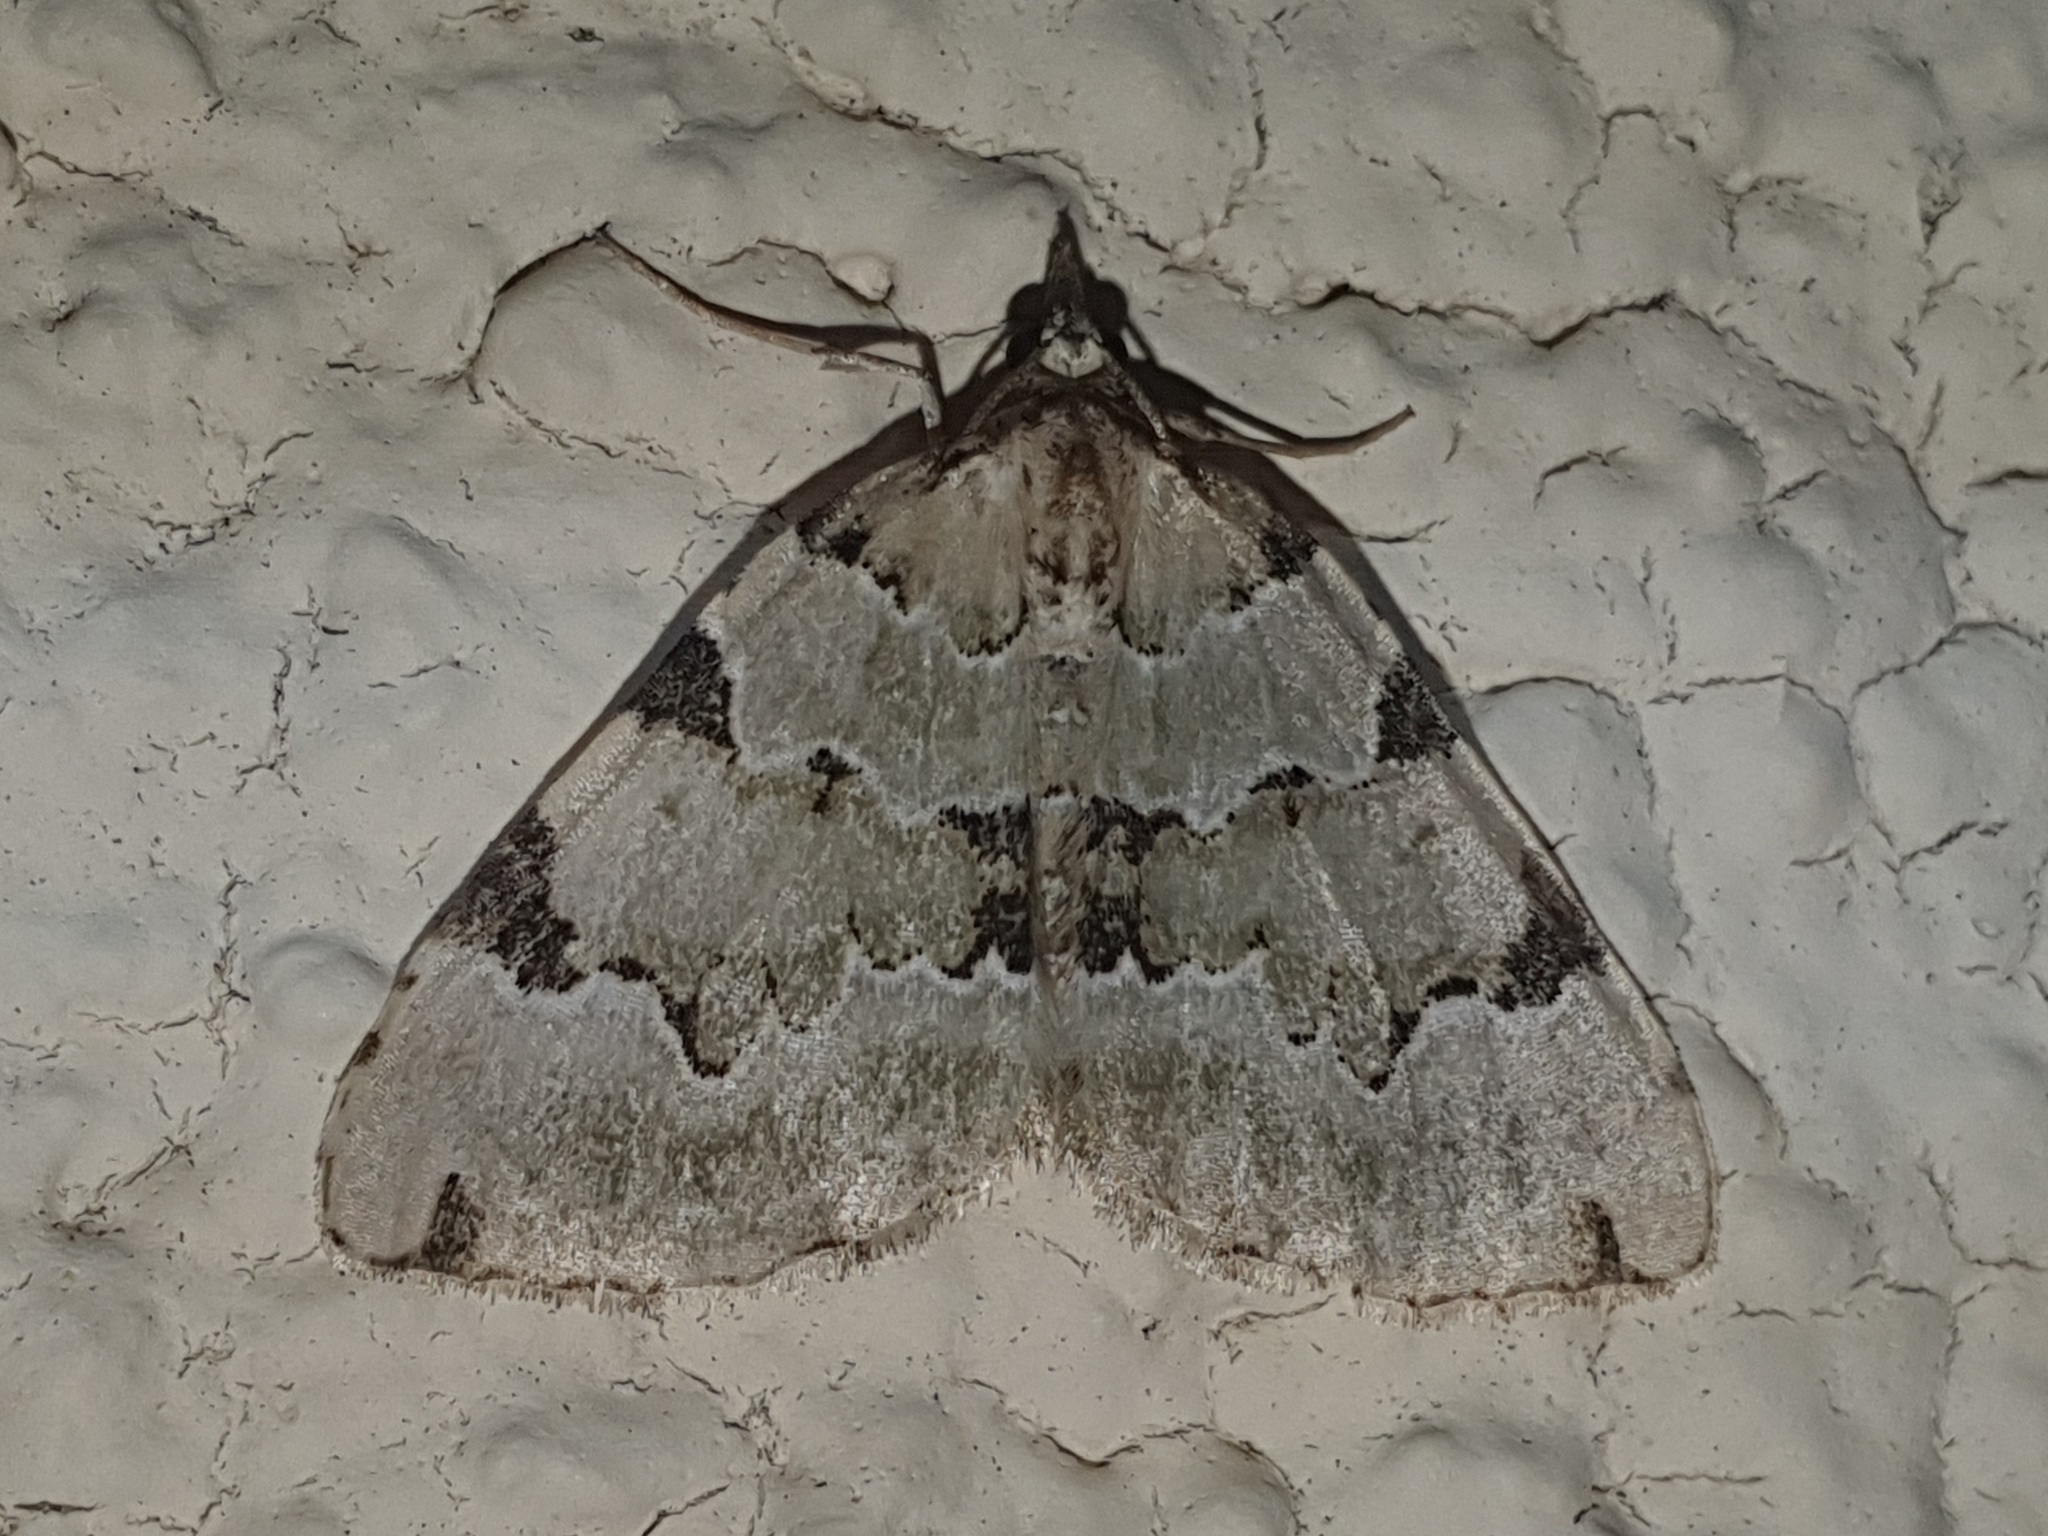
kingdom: Animalia
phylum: Arthropoda
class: Insecta
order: Lepidoptera
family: Geometridae
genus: Colostygia
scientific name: Colostygia pectinataria
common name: Green carpet
